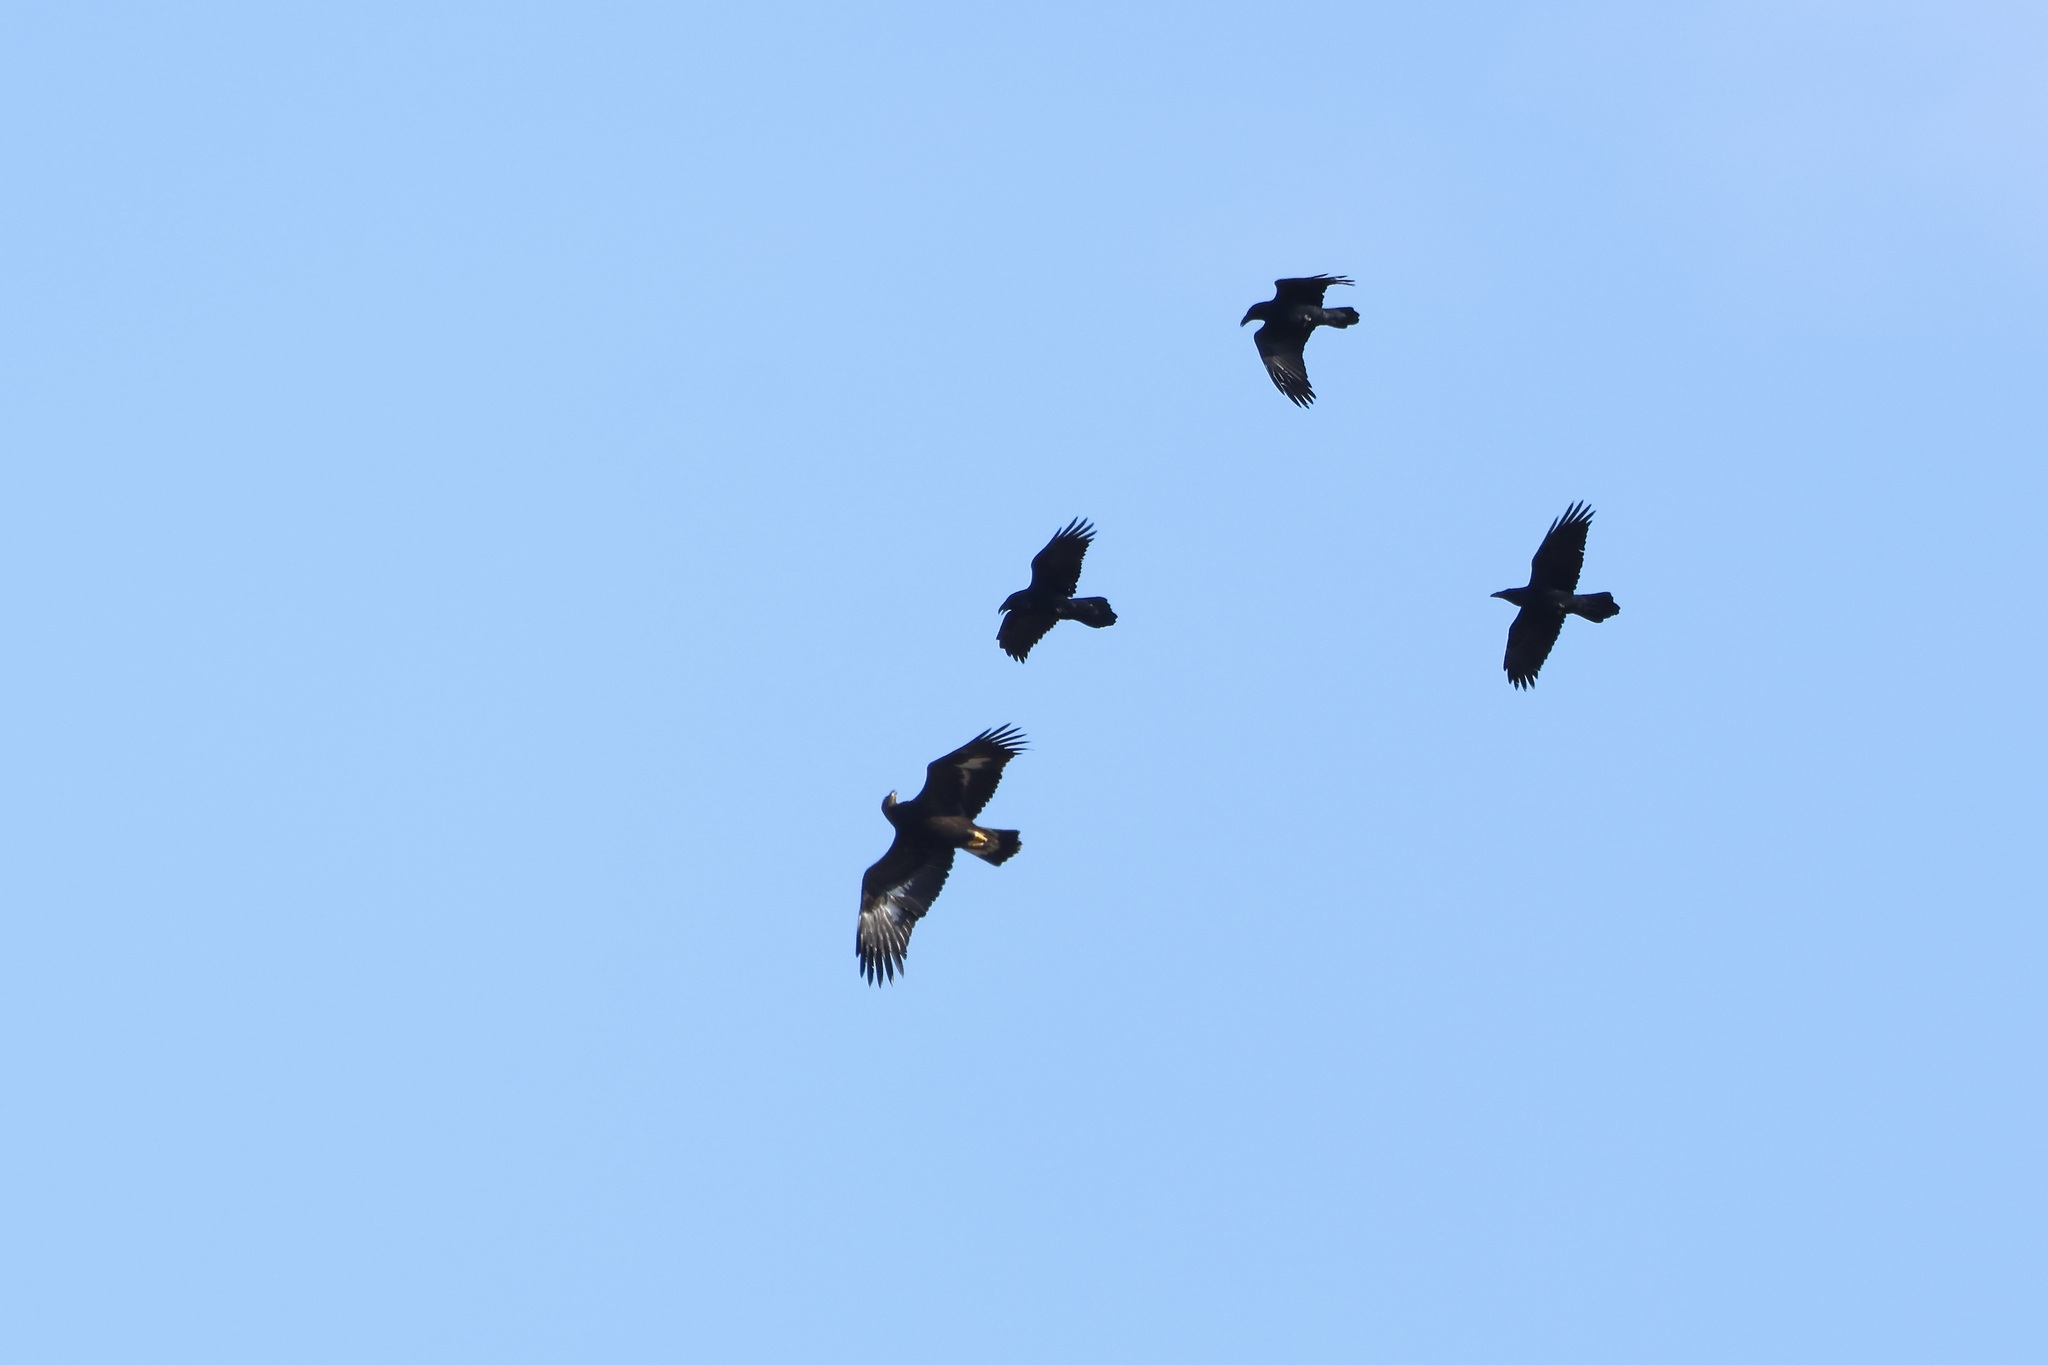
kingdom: Animalia
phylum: Chordata
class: Aves
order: Accipitriformes
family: Accipitridae
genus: Aquila
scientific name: Aquila chrysaetos
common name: Golden eagle
